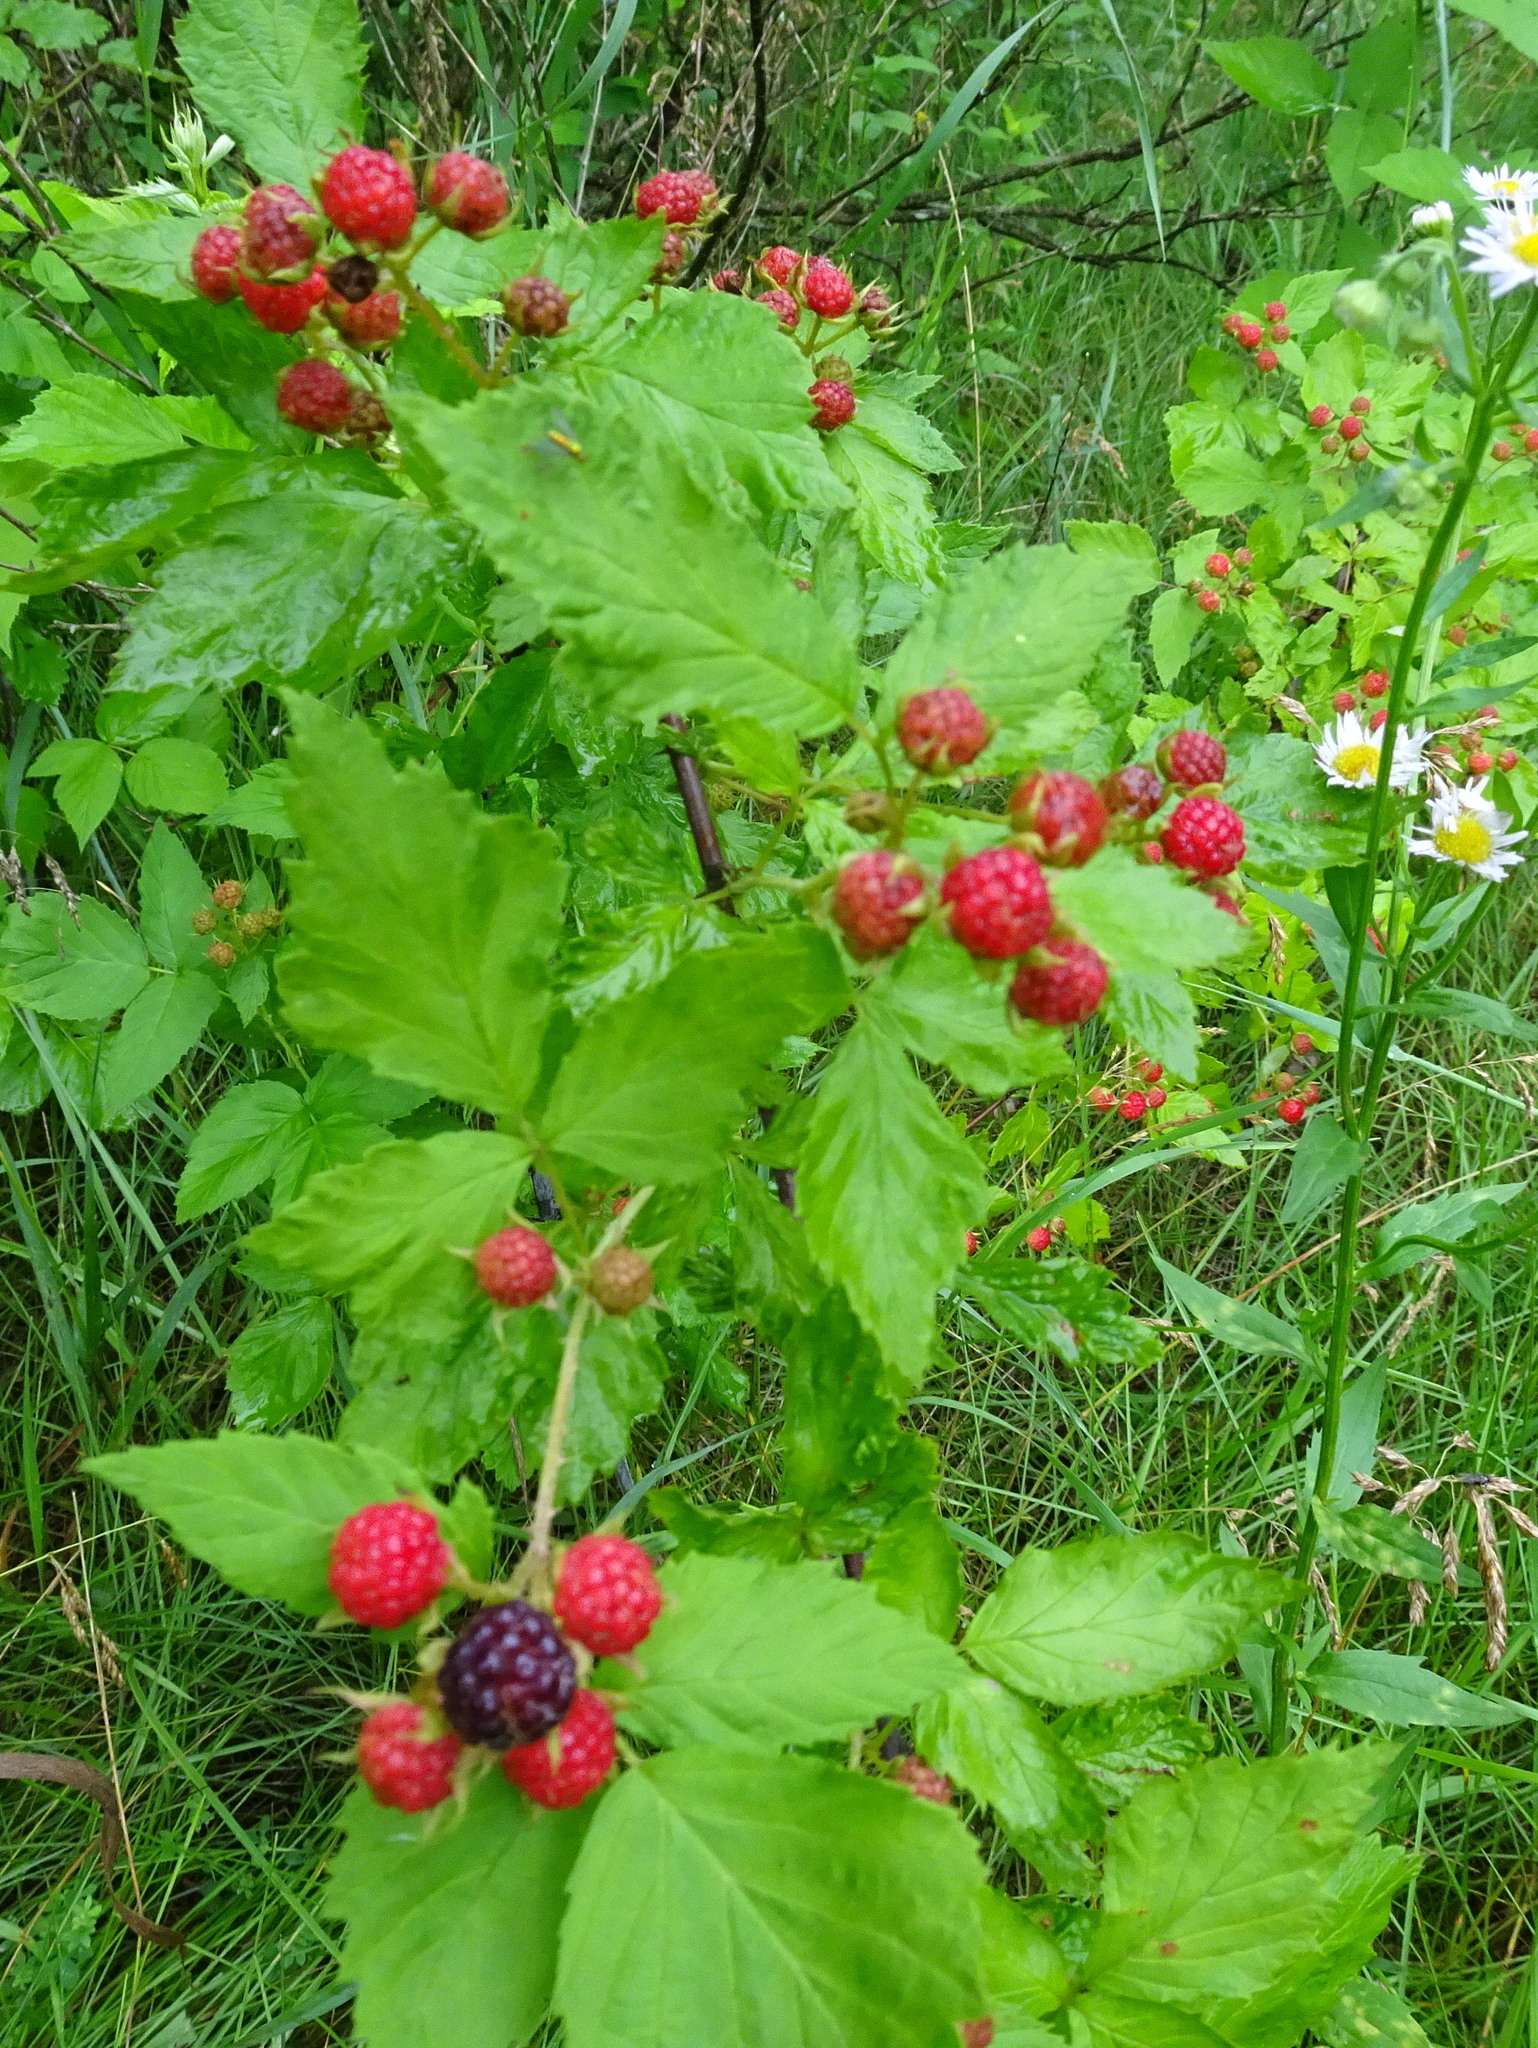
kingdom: Plantae
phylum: Tracheophyta
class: Magnoliopsida
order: Rosales
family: Rosaceae
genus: Rubus
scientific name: Rubus occidentalis
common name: Black raspberry
